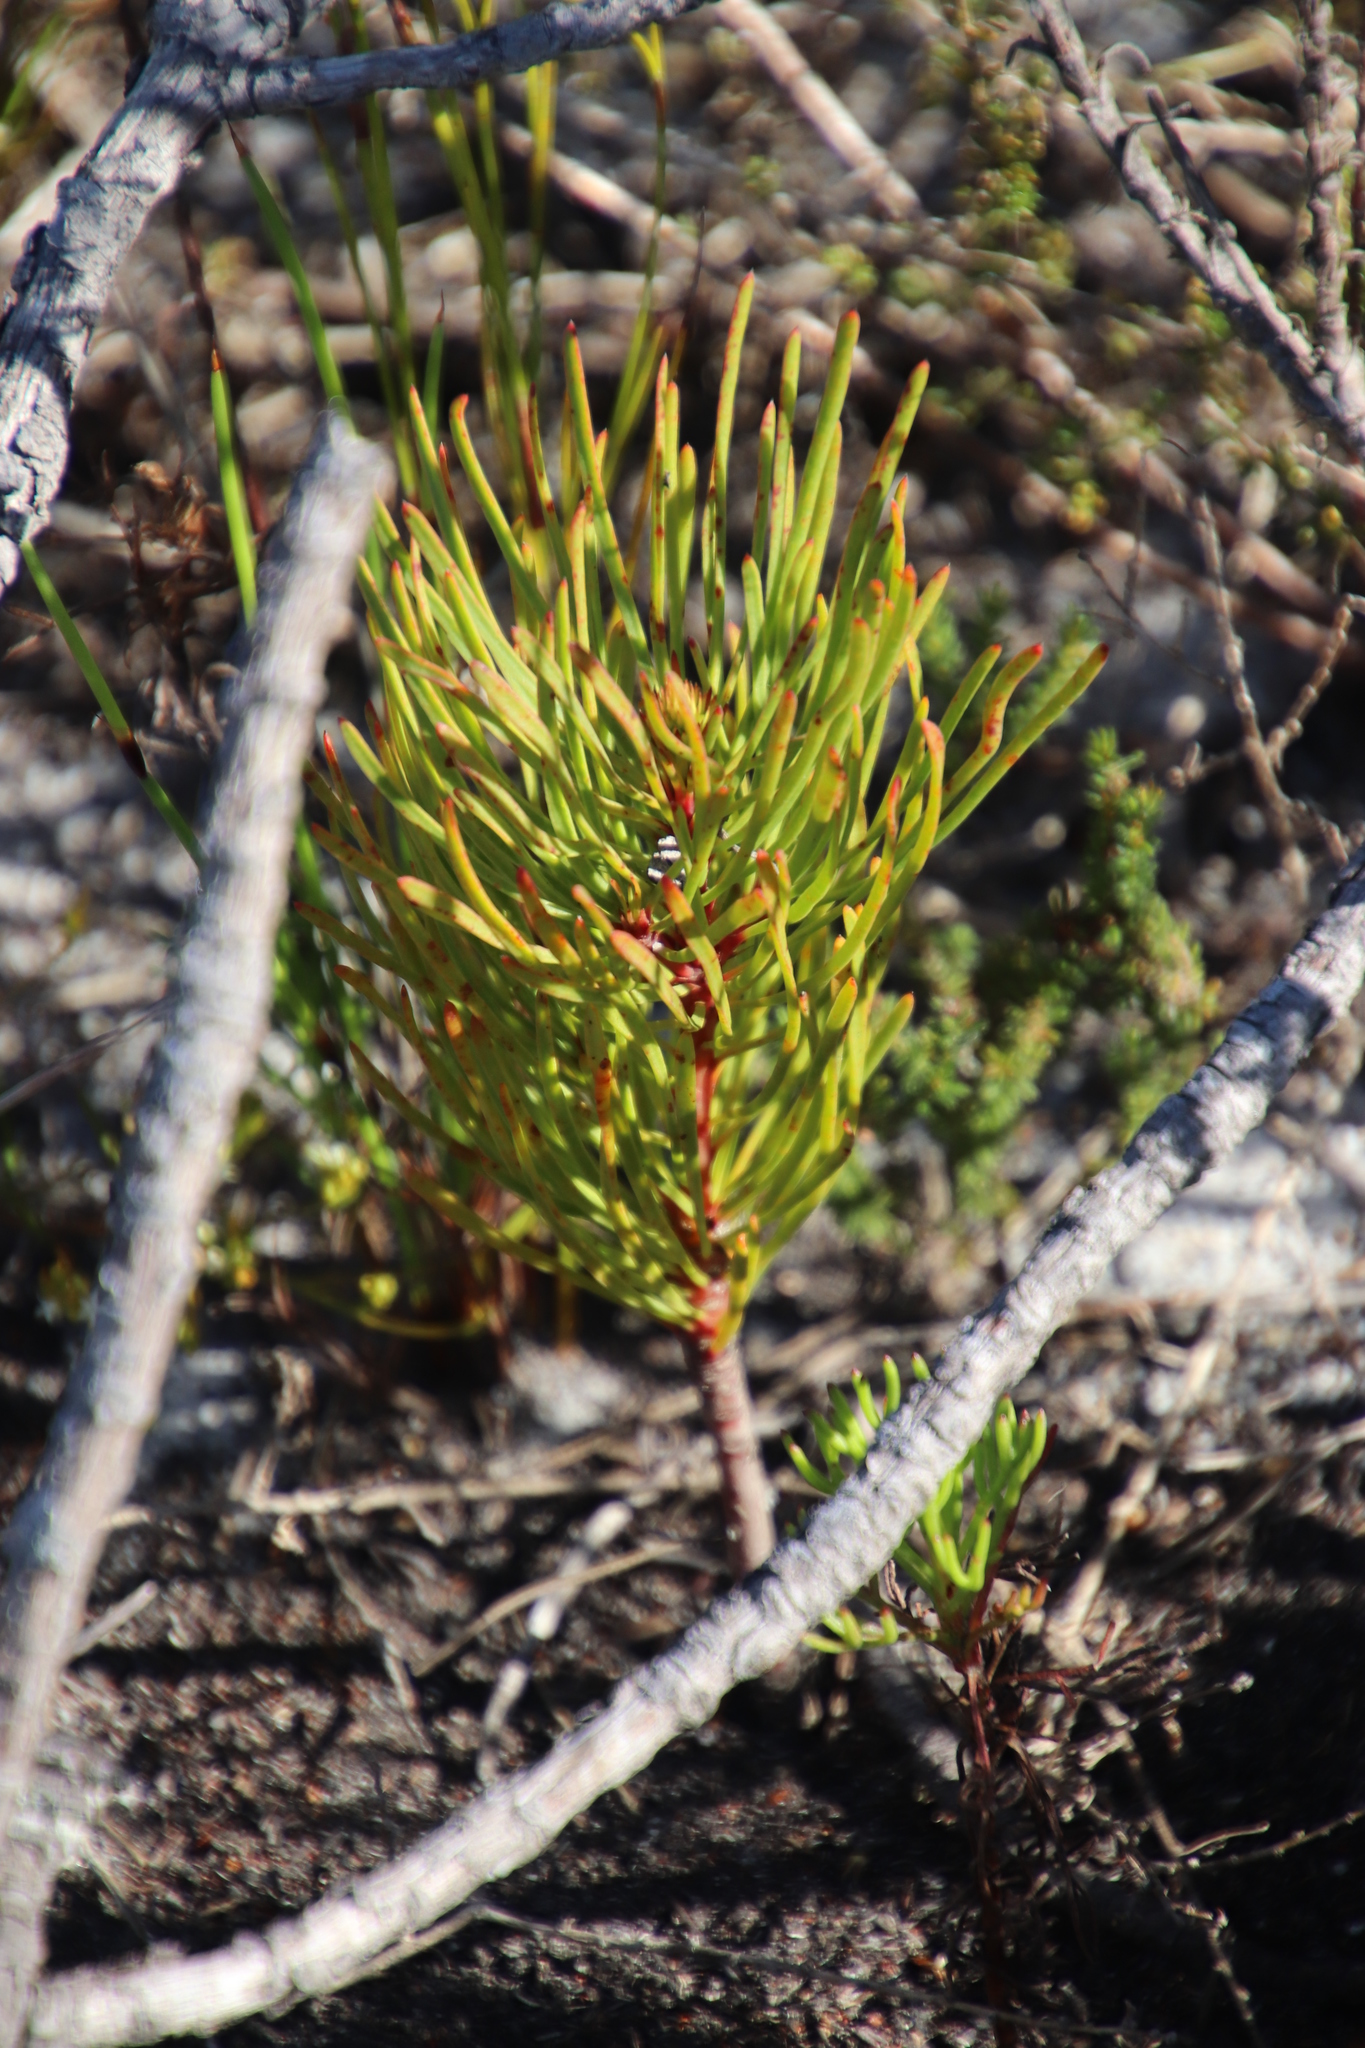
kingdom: Plantae
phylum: Tracheophyta
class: Magnoliopsida
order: Proteales
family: Proteaceae
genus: Aulax
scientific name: Aulax cancellata
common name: Channel-leaf featherbush
